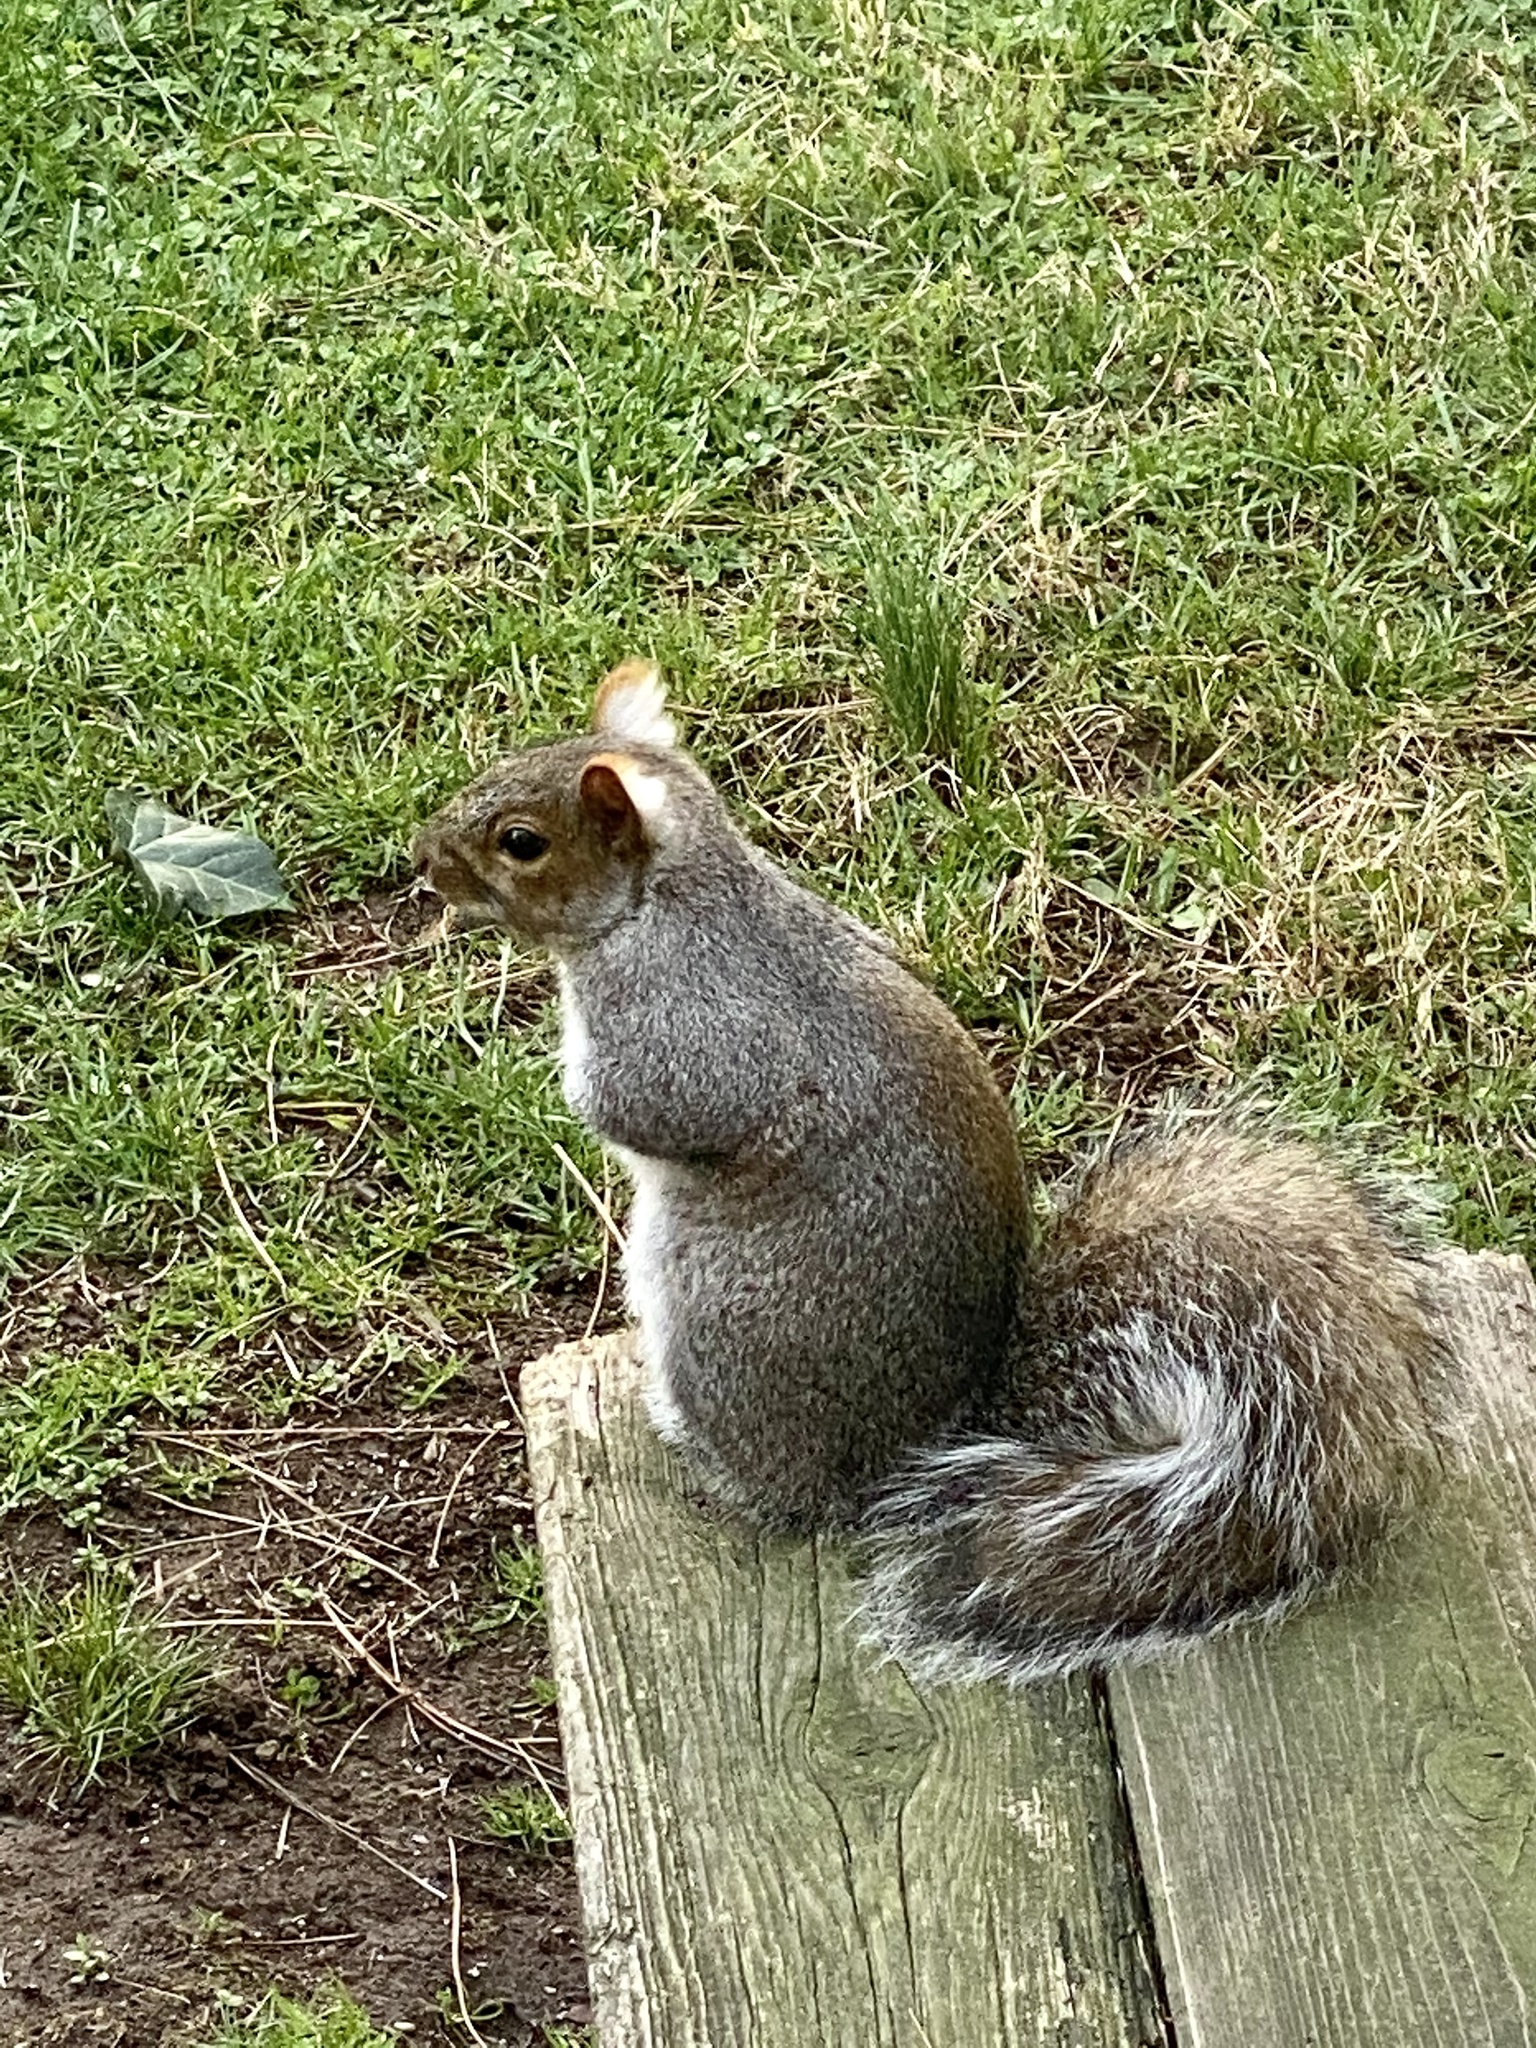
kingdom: Animalia
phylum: Chordata
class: Mammalia
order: Rodentia
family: Sciuridae
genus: Sciurus
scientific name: Sciurus carolinensis
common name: Eastern gray squirrel
